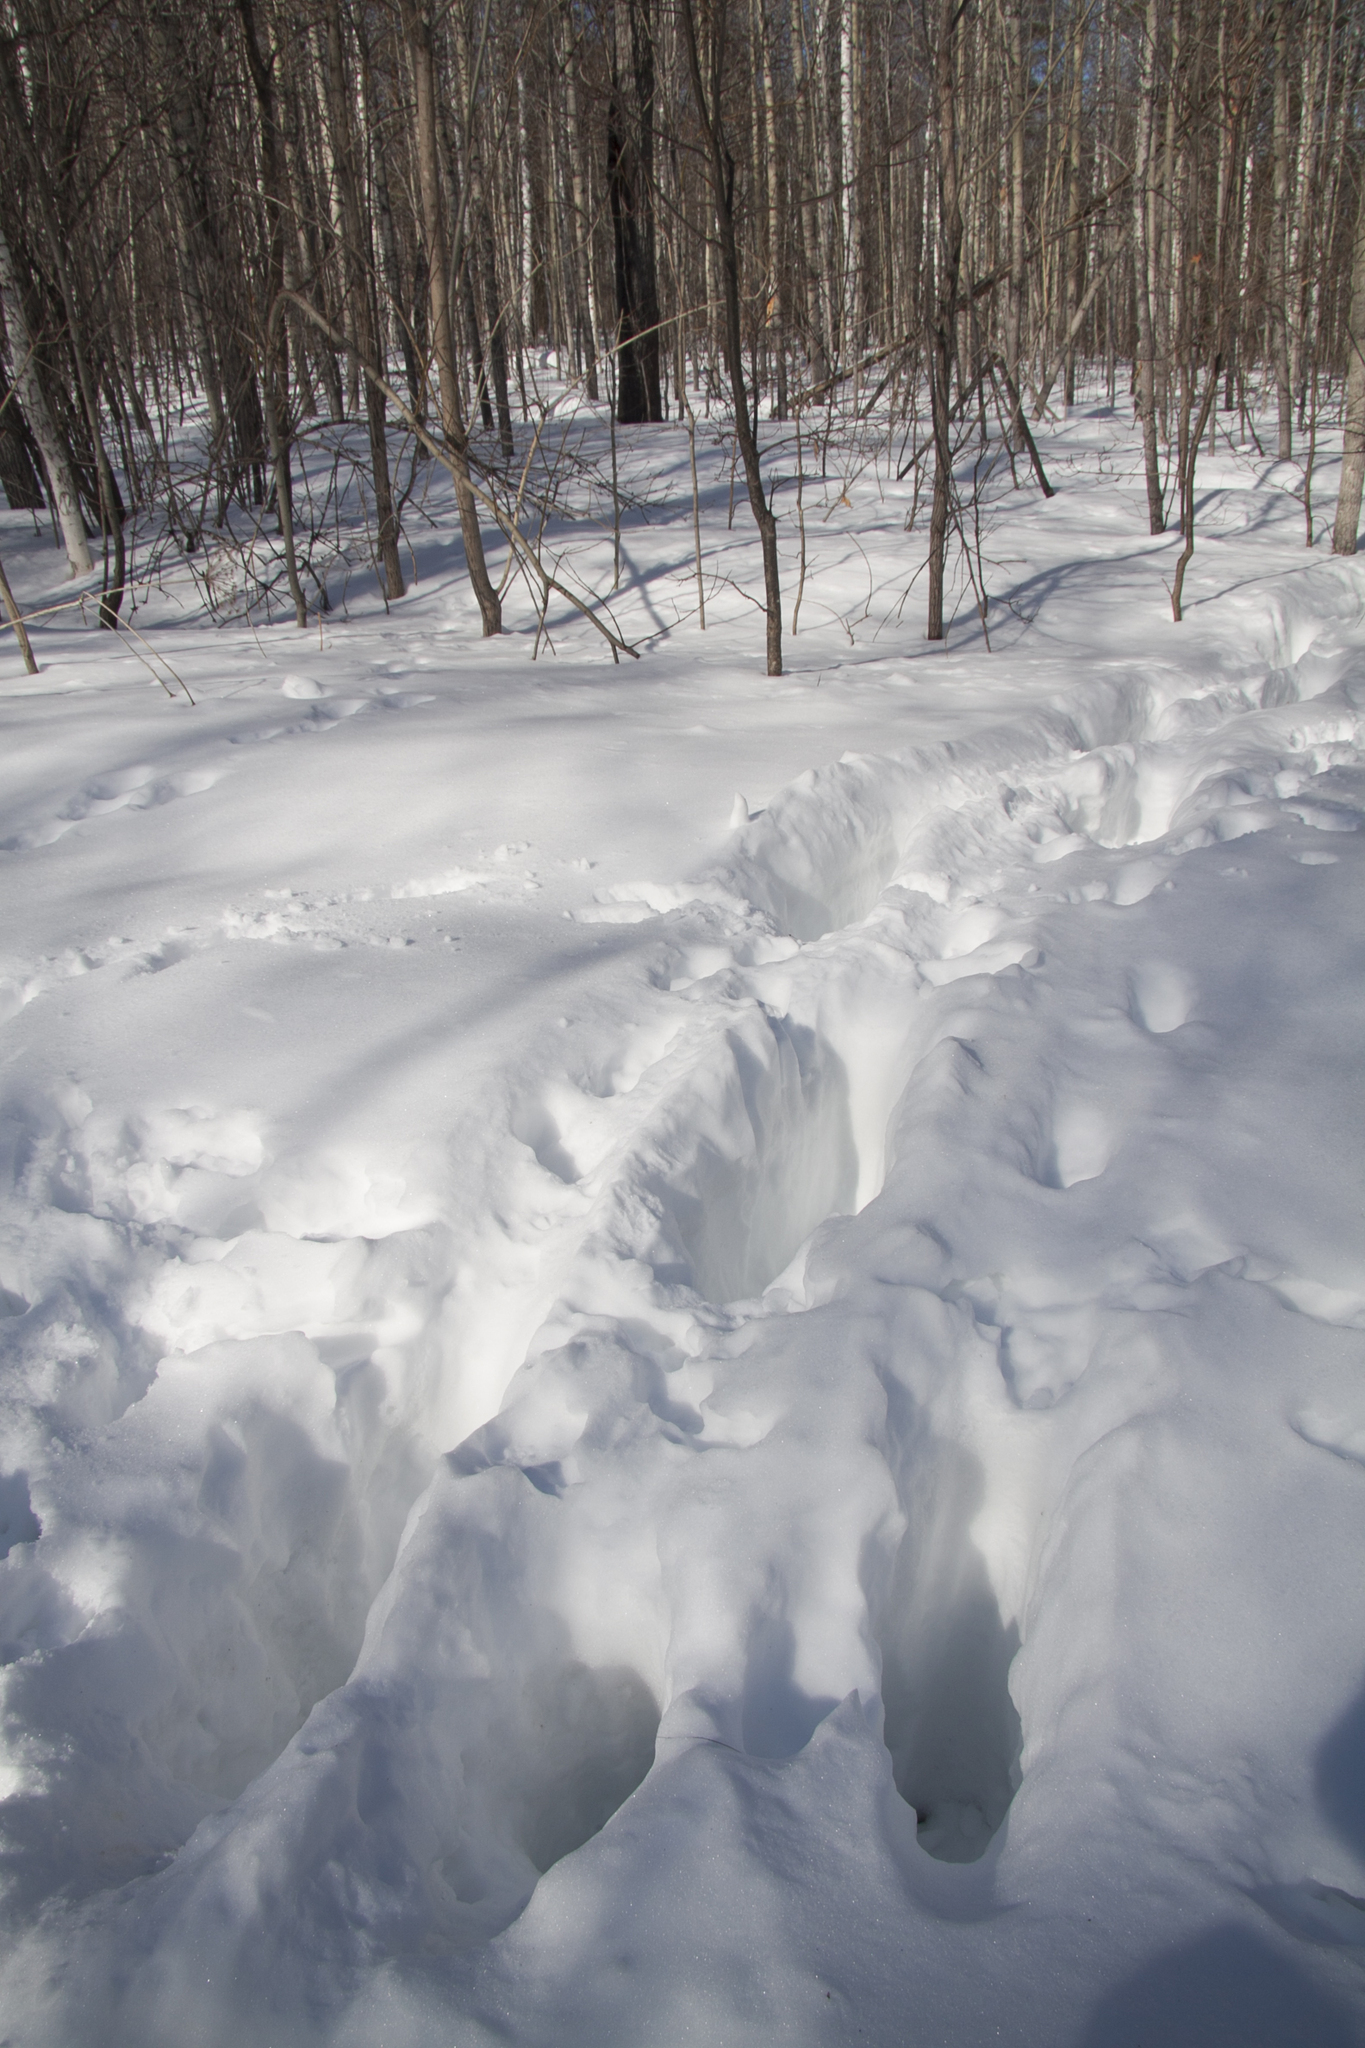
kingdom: Animalia
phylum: Chordata
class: Mammalia
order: Artiodactyla
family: Cervidae
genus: Alces
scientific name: Alces alces
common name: Moose
